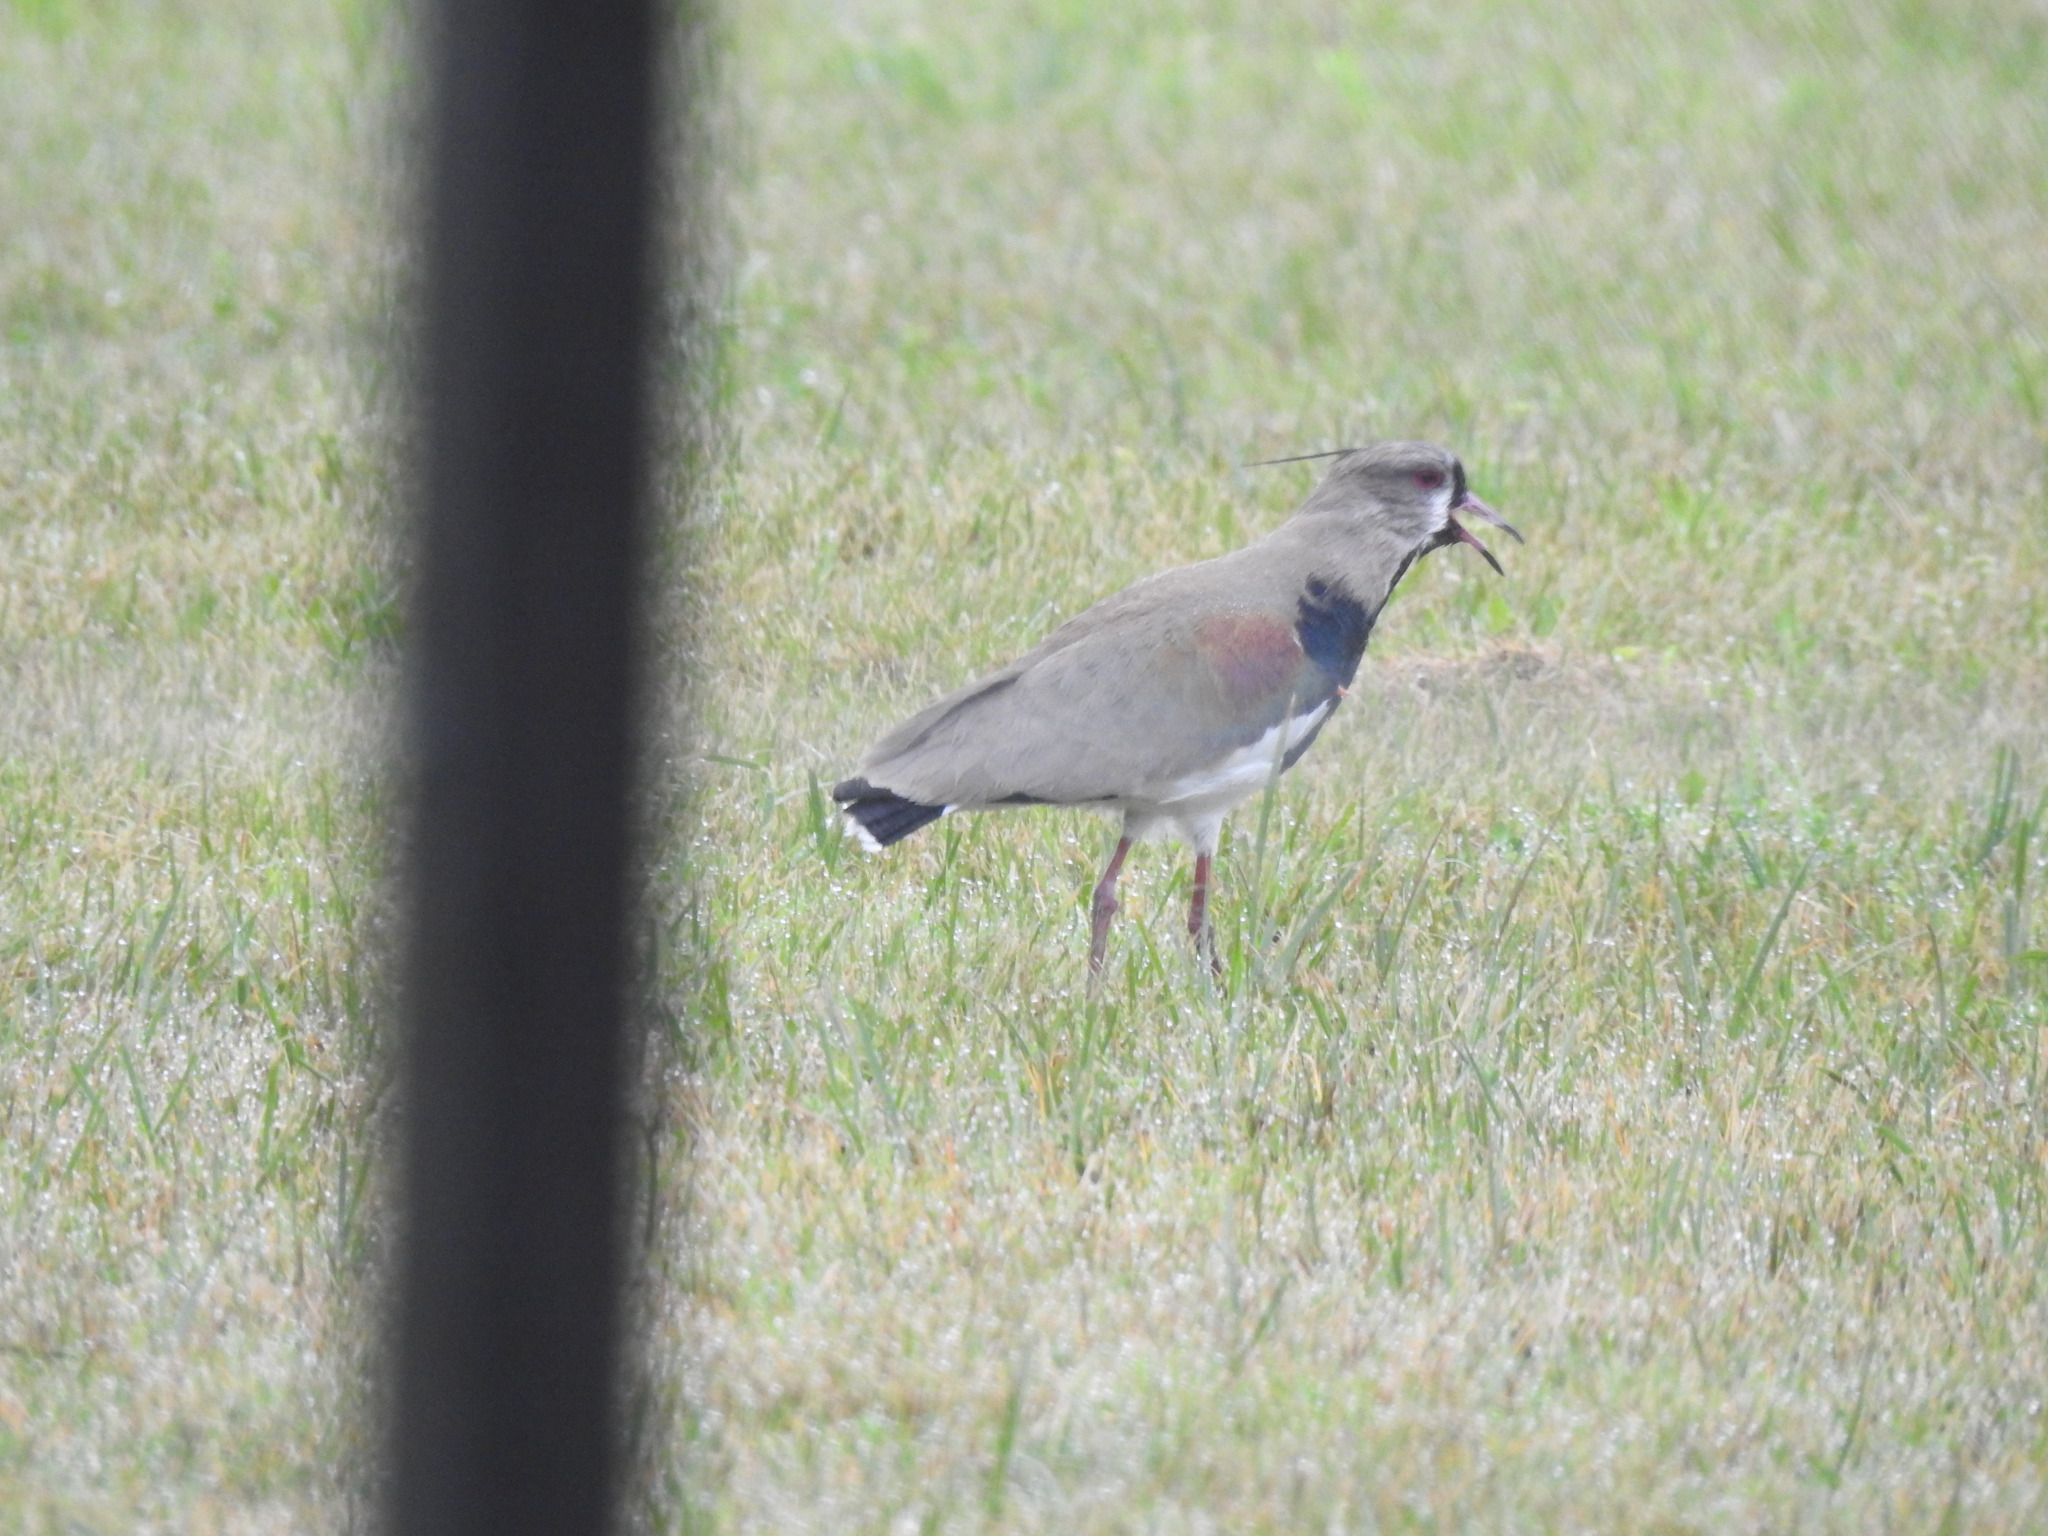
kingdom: Animalia
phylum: Chordata
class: Aves
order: Charadriiformes
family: Charadriidae
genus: Vanellus
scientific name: Vanellus chilensis
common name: Southern lapwing
